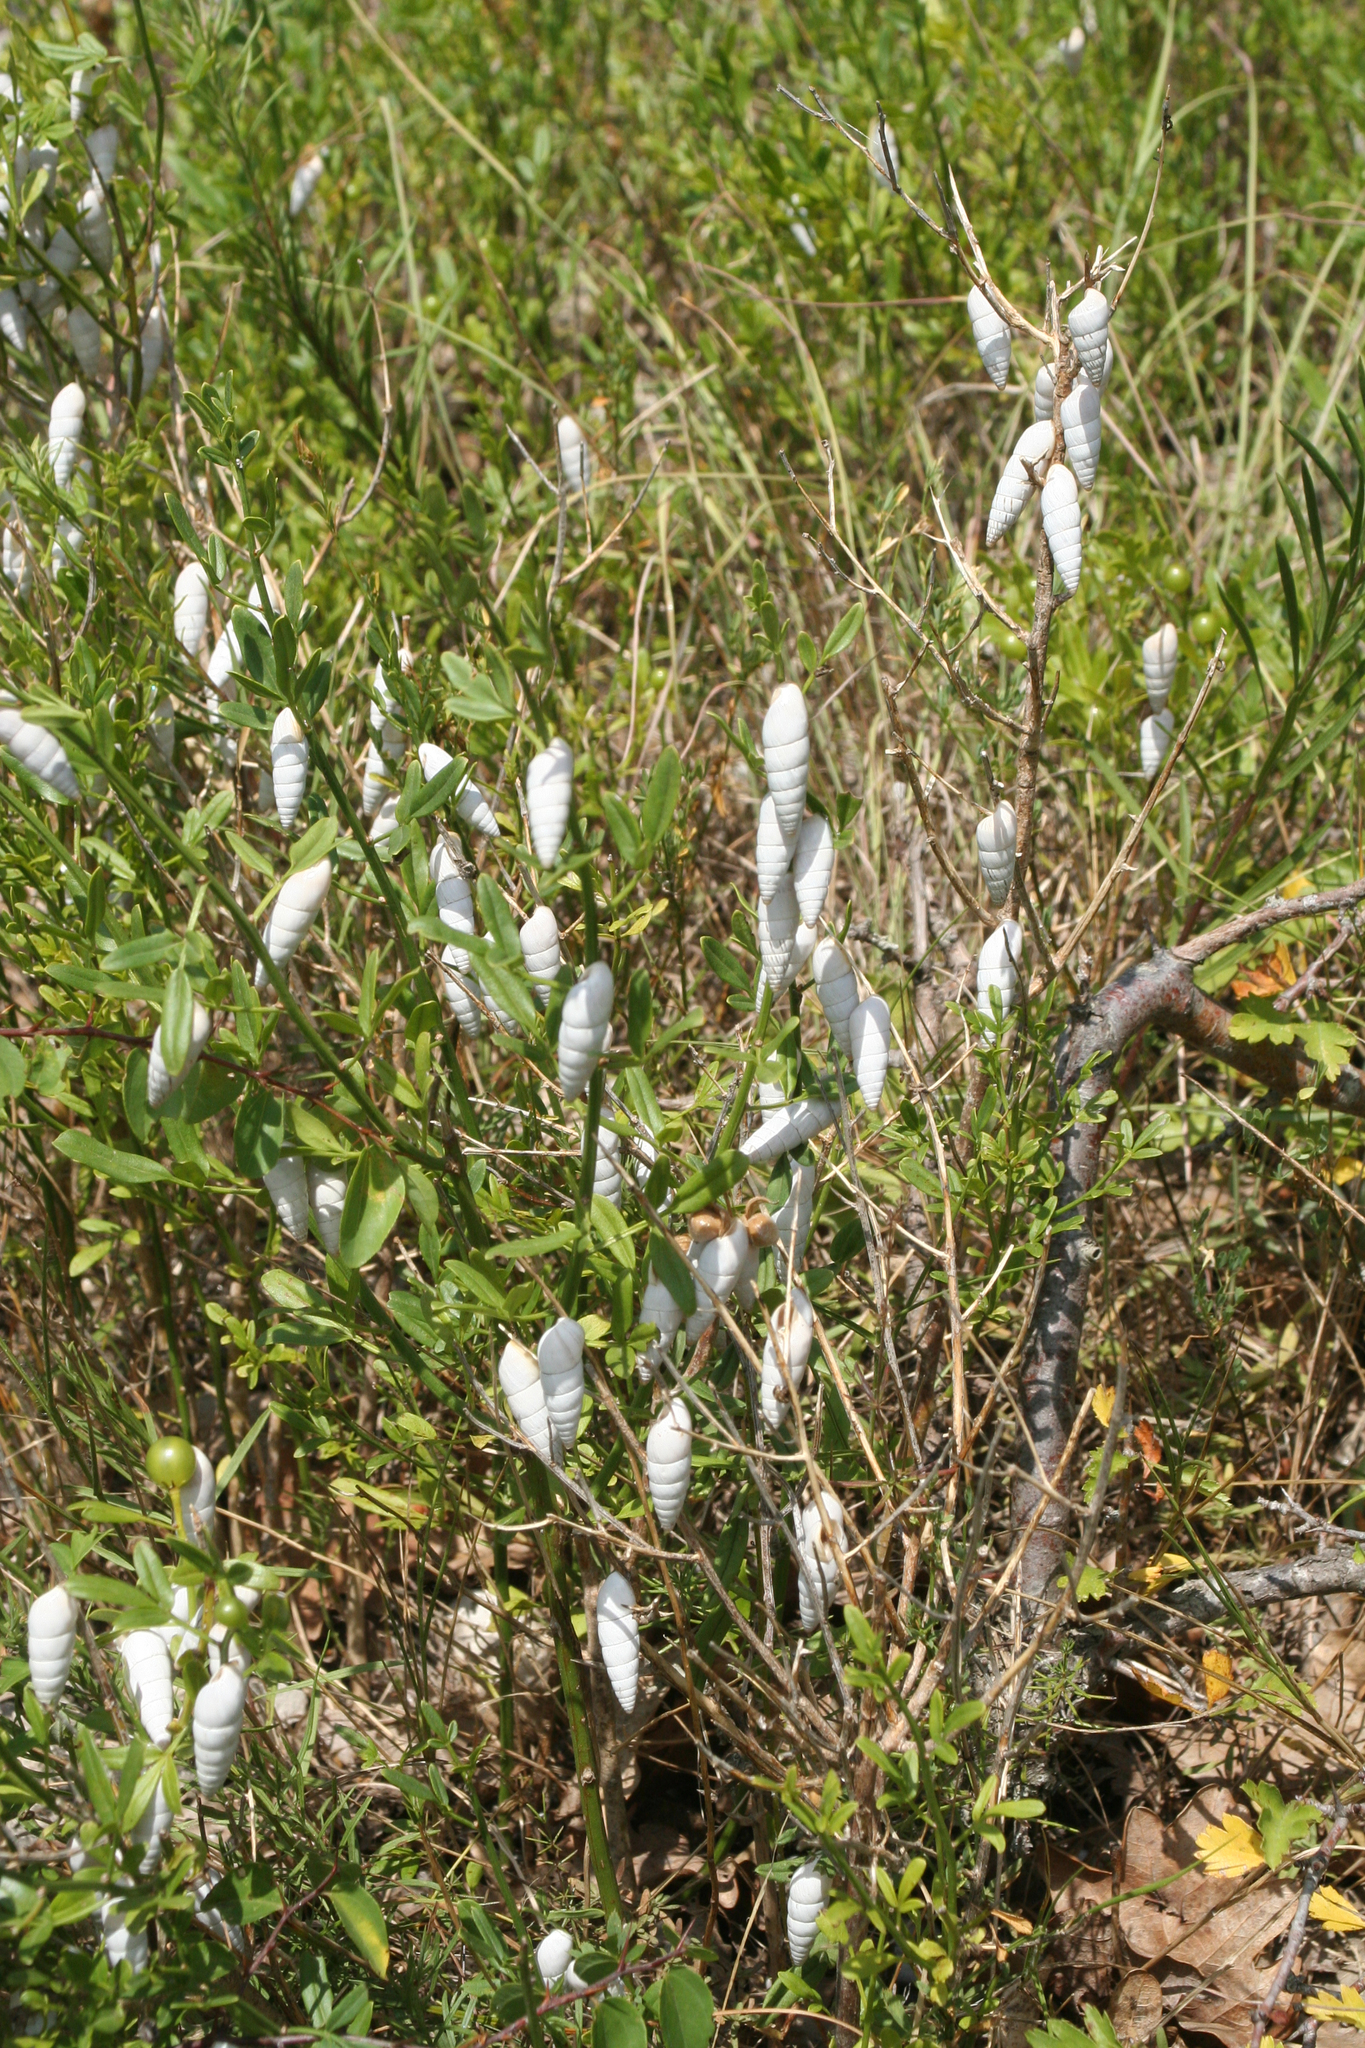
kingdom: Animalia
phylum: Mollusca
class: Gastropoda
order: Stylommatophora
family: Enidae
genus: Brephulopsis
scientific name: Brephulopsis cylindrica
